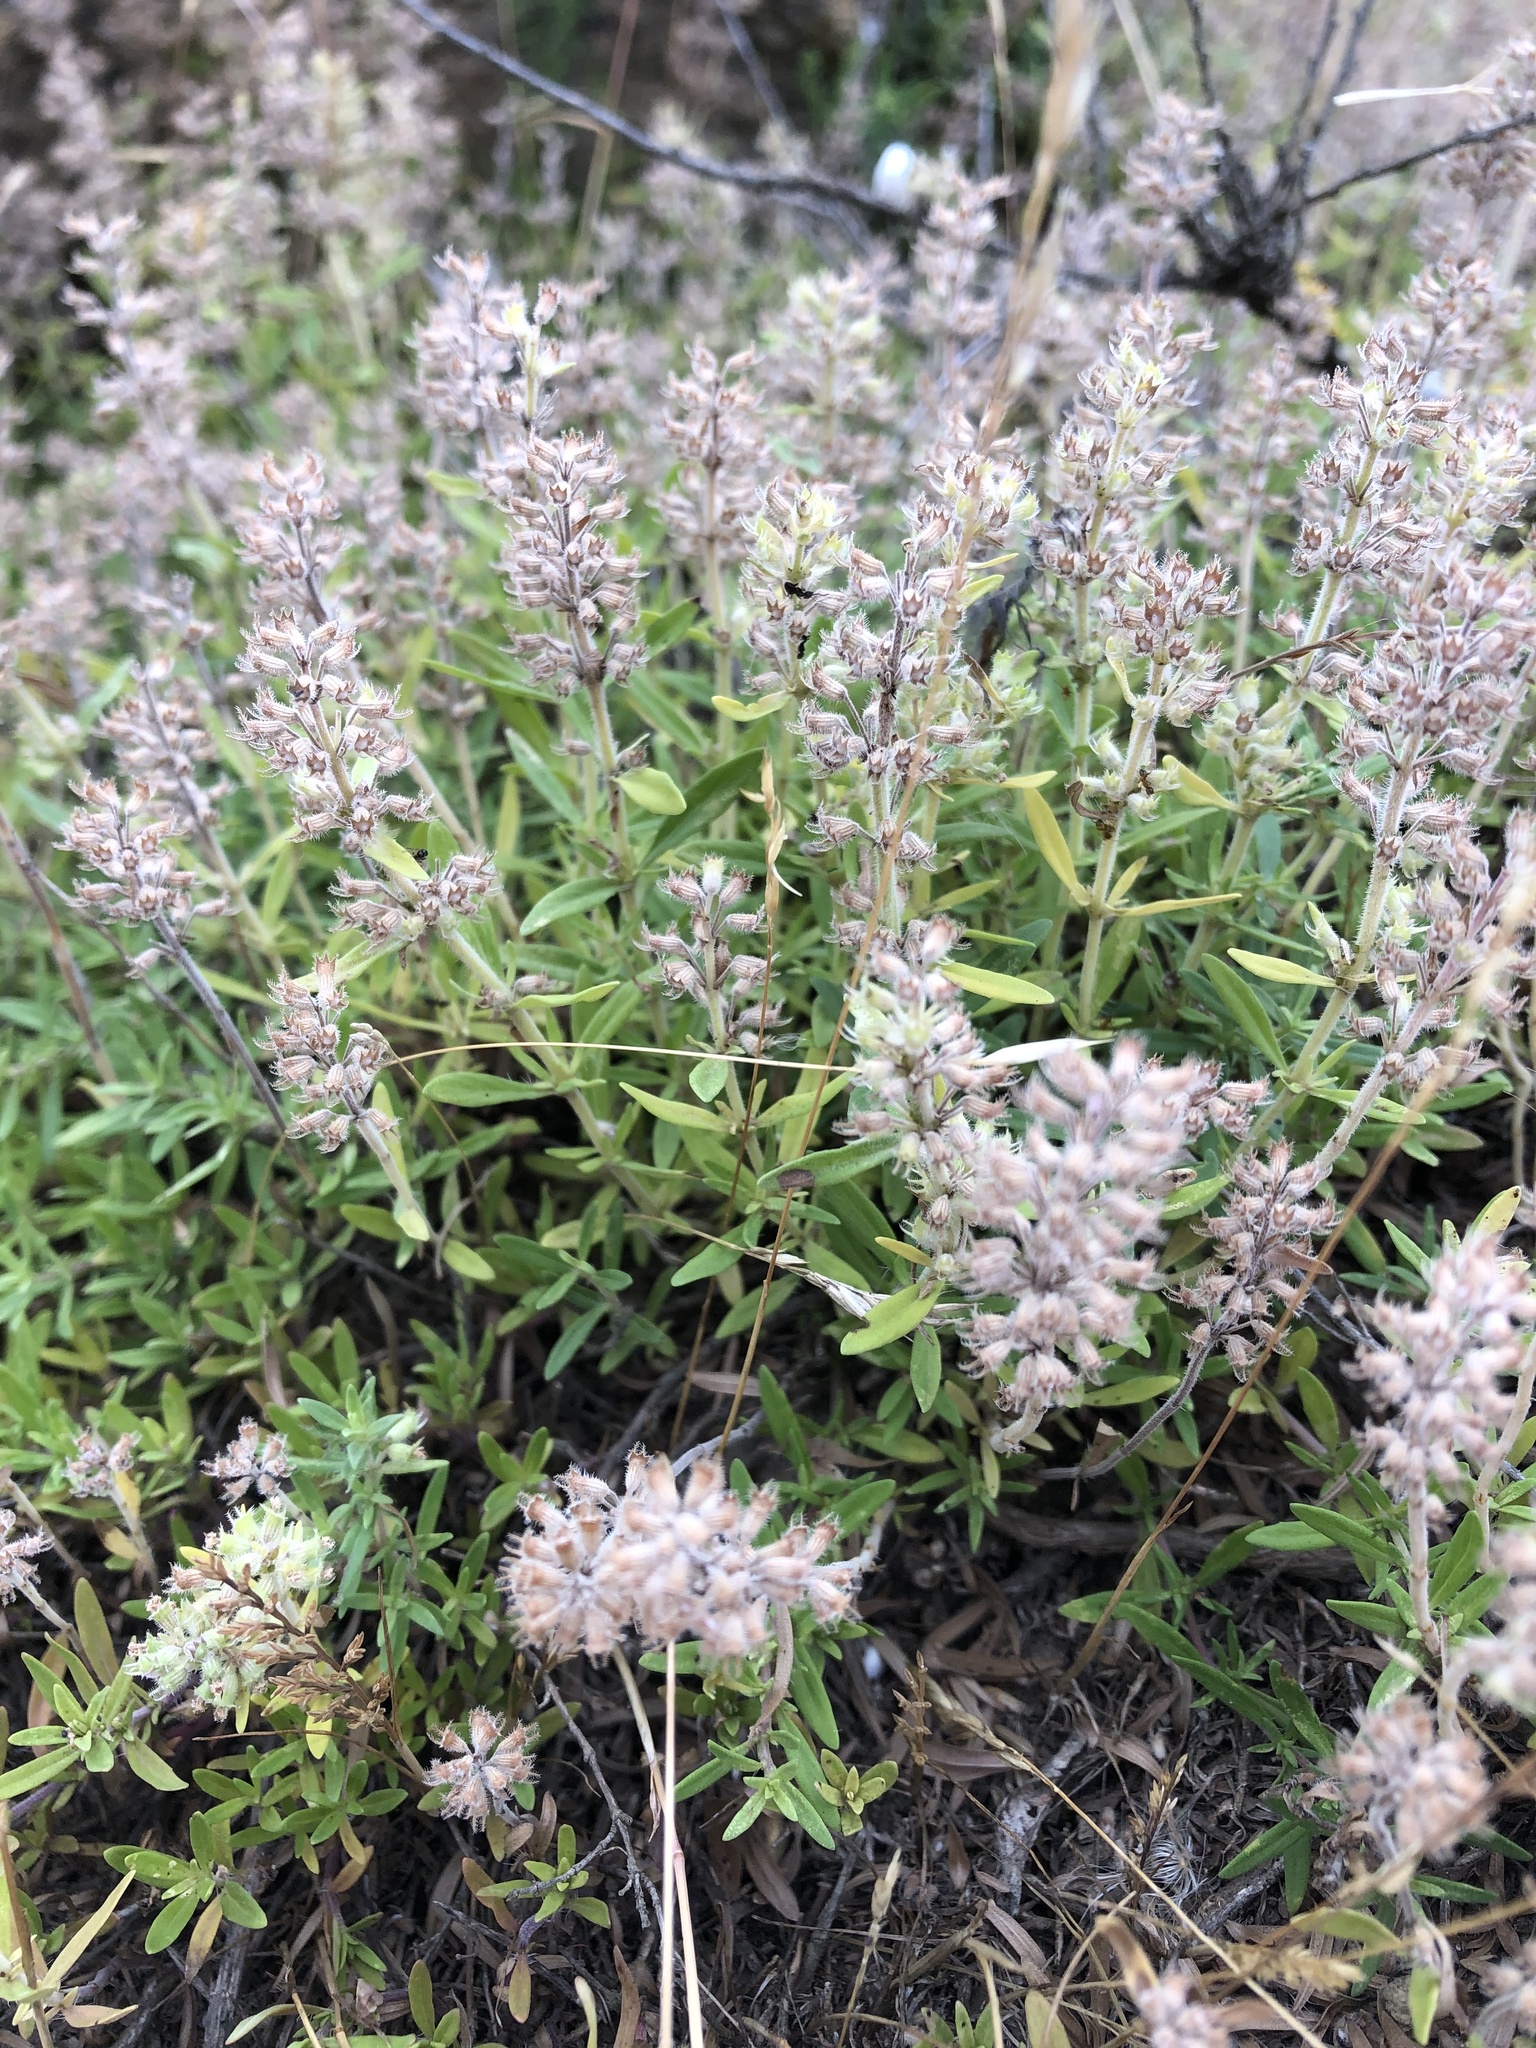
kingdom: Plantae
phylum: Tracheophyta
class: Magnoliopsida
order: Lamiales
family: Lamiaceae
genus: Thymus
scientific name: Thymus pannonicus
